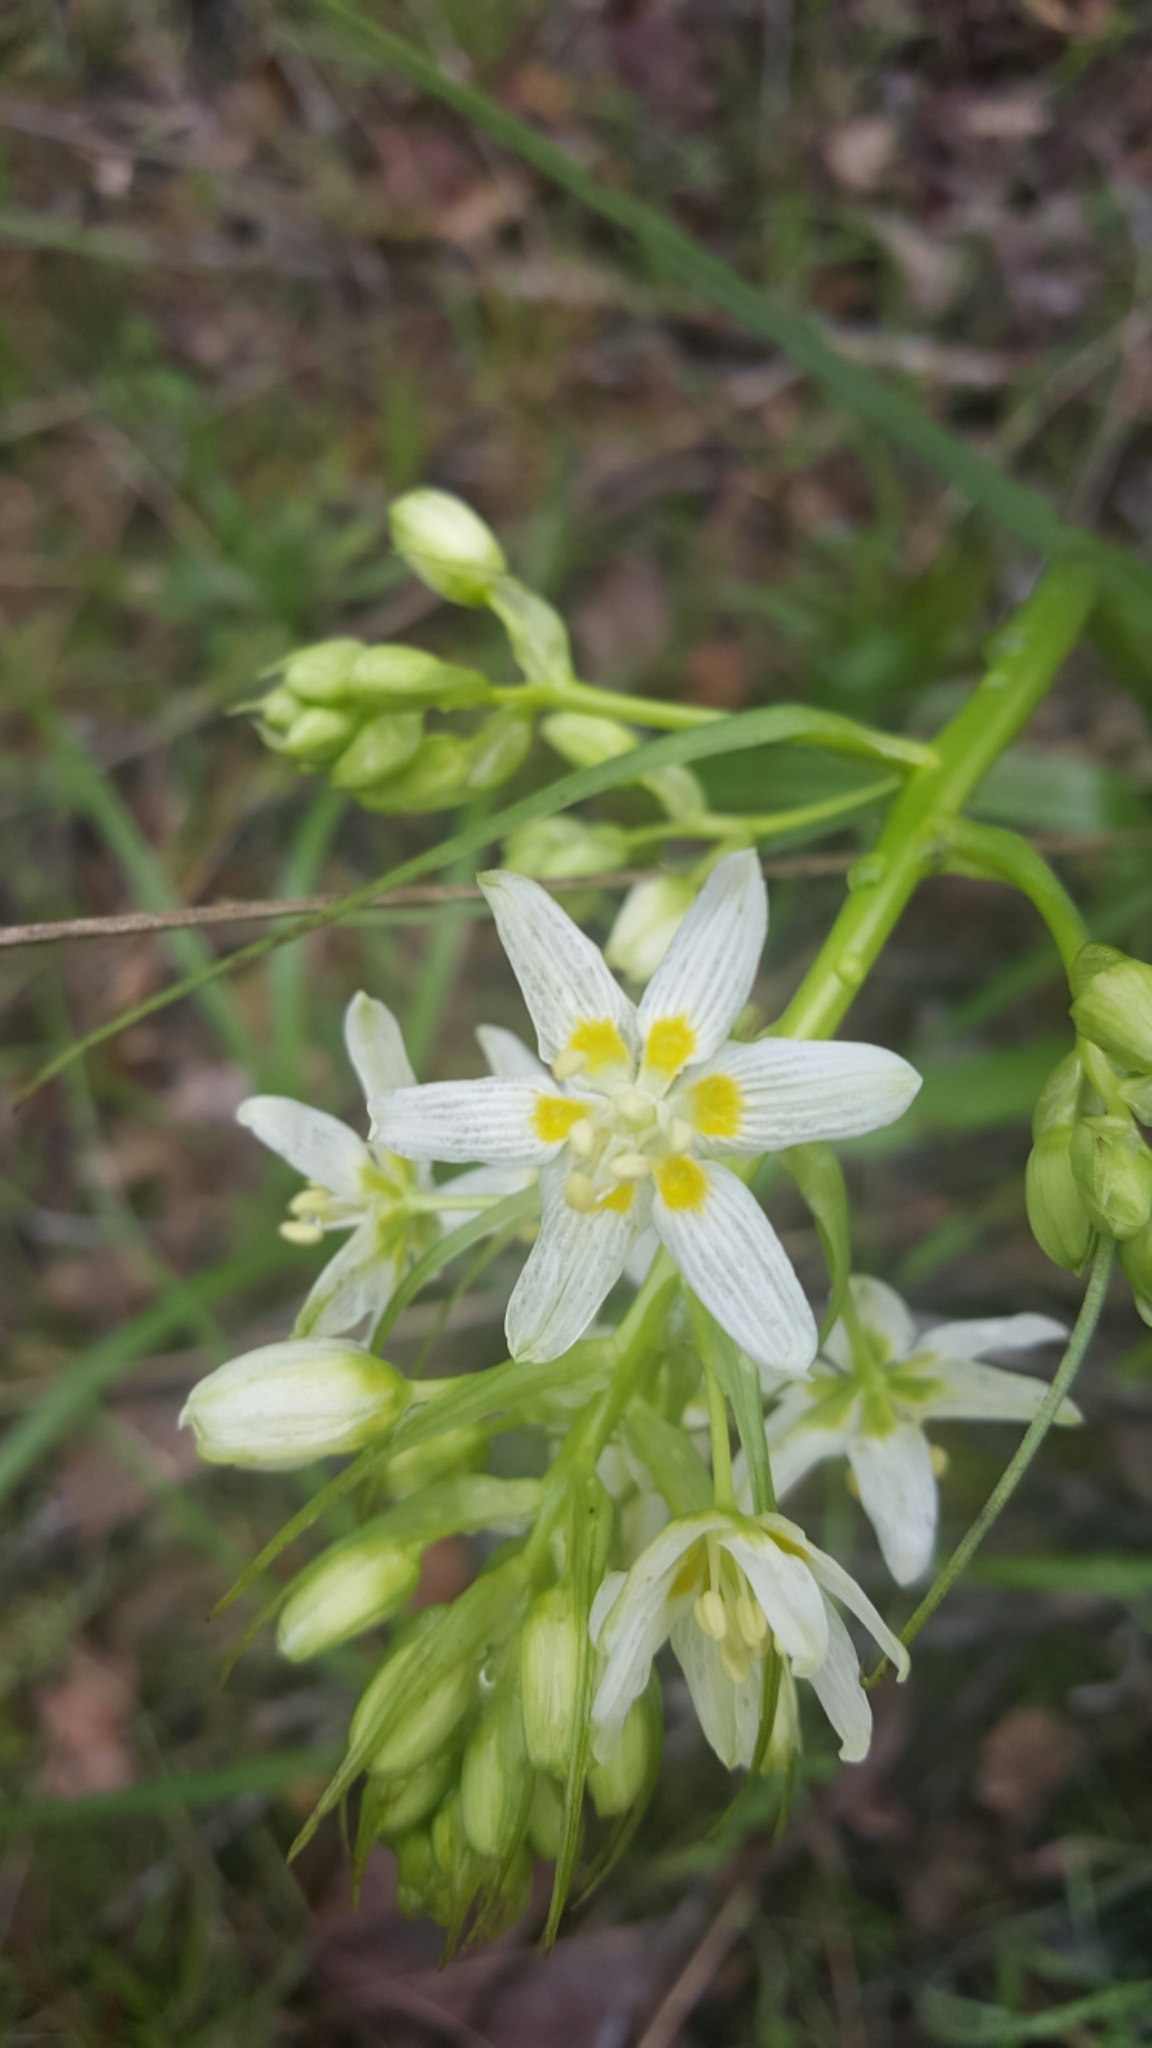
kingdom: Plantae
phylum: Tracheophyta
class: Liliopsida
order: Liliales
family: Melanthiaceae
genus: Toxicoscordion
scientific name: Toxicoscordion fremontii
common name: Fremont's death camas
